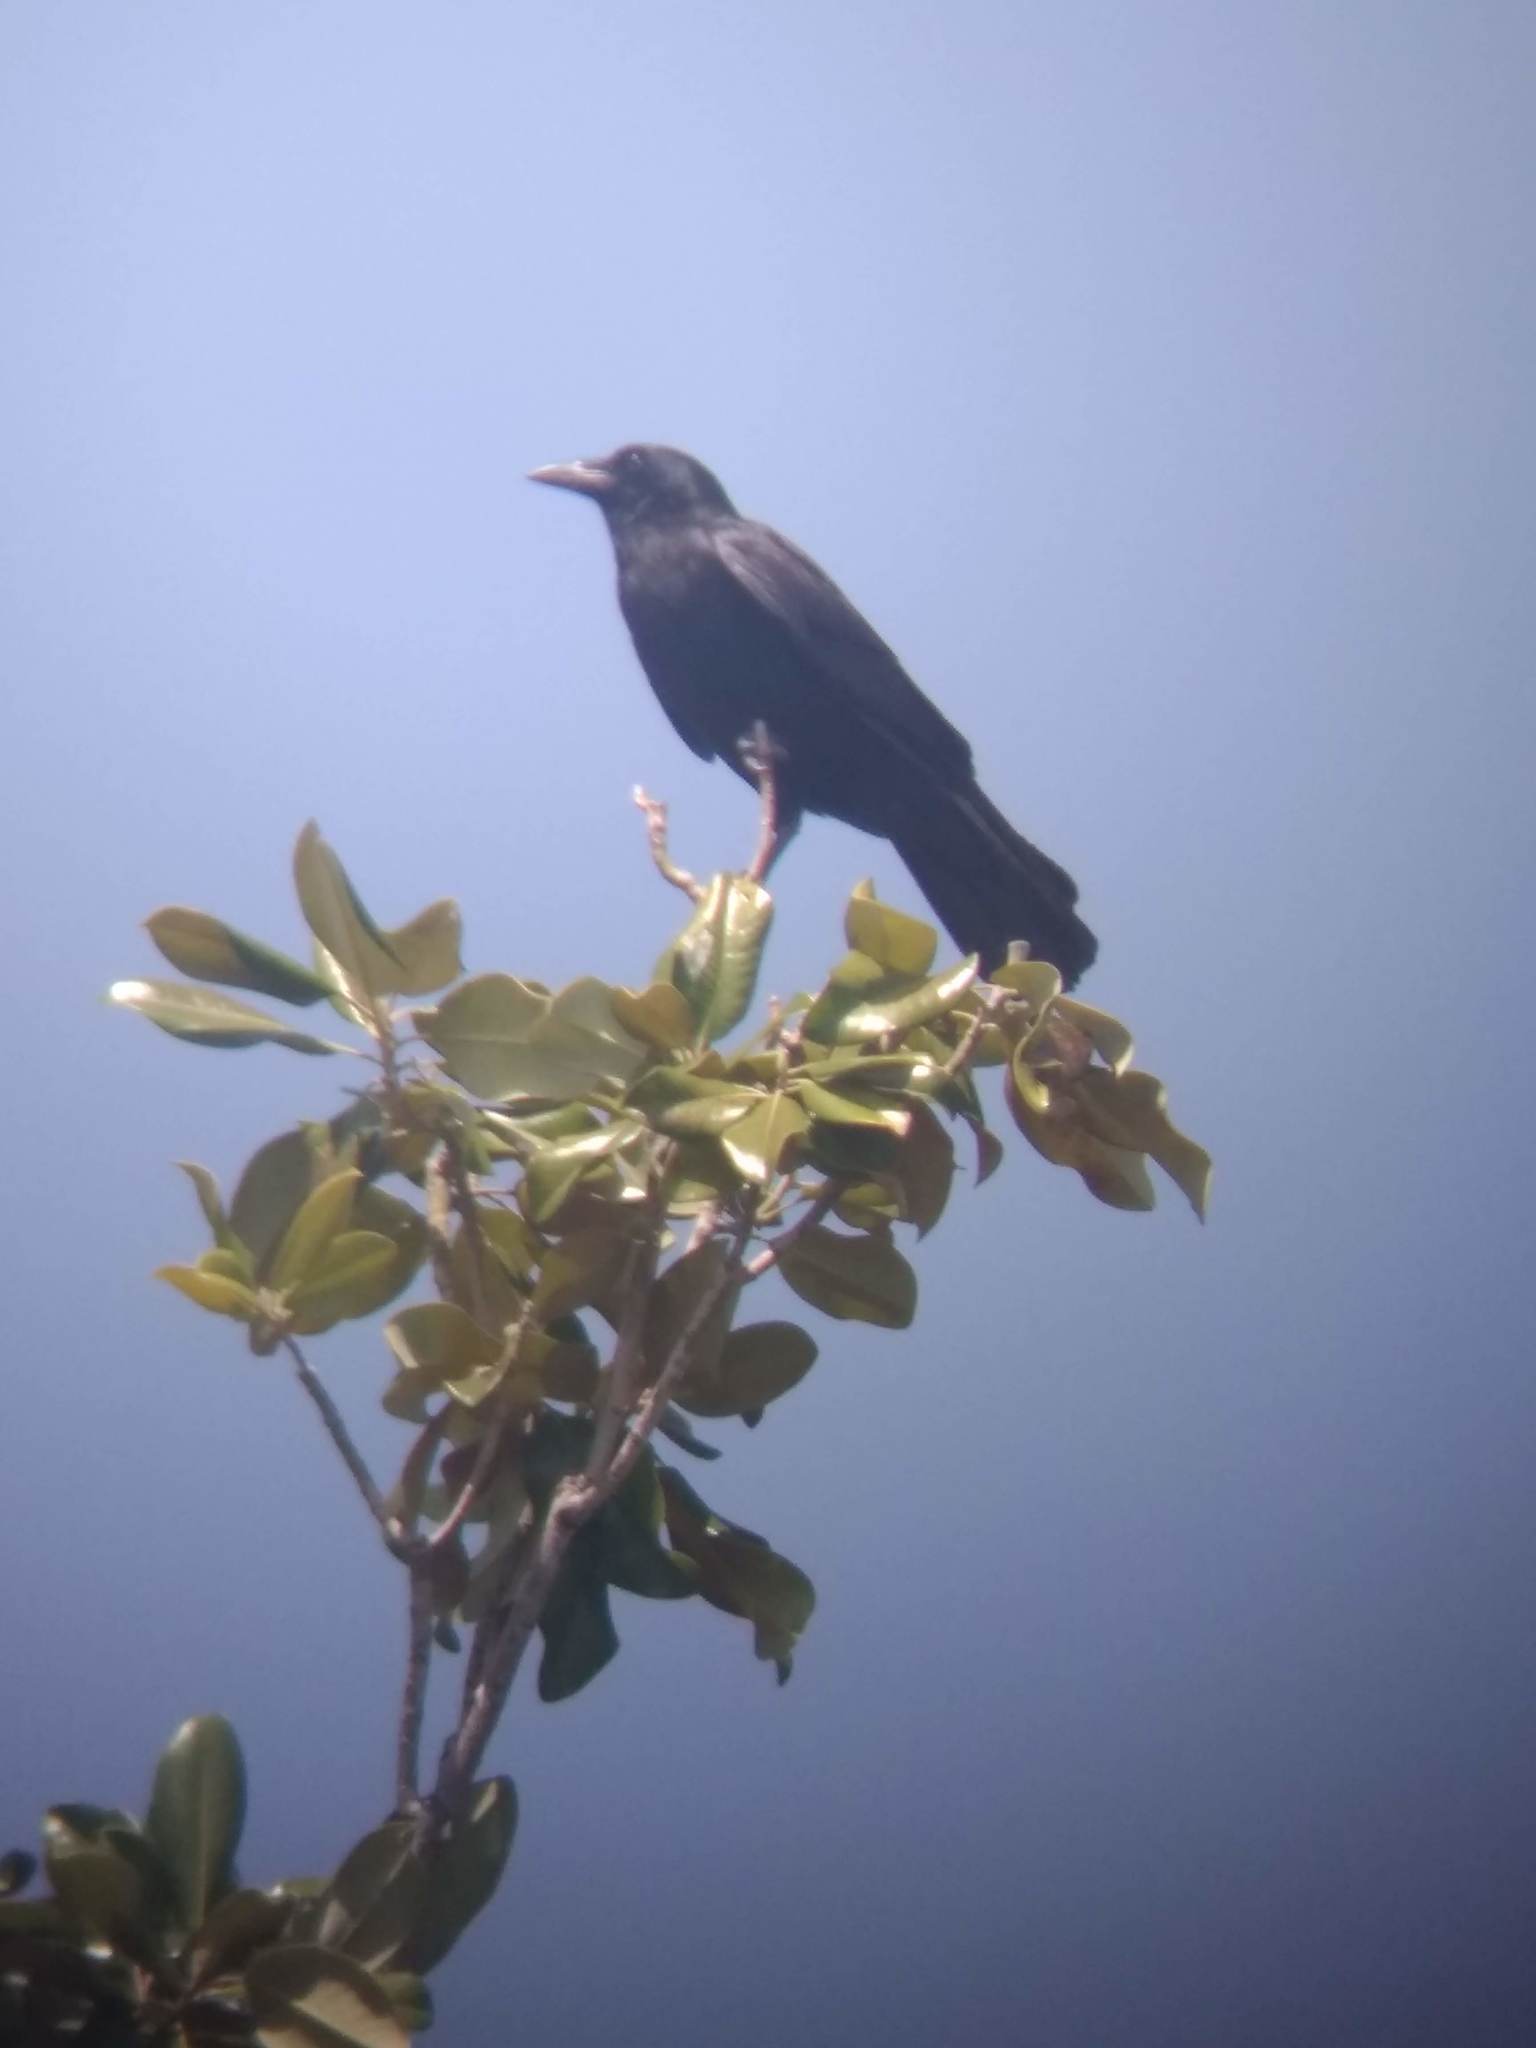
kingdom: Animalia
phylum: Chordata
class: Aves
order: Passeriformes
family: Corvidae
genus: Corvus
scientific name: Corvus brachyrhynchos
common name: American crow
